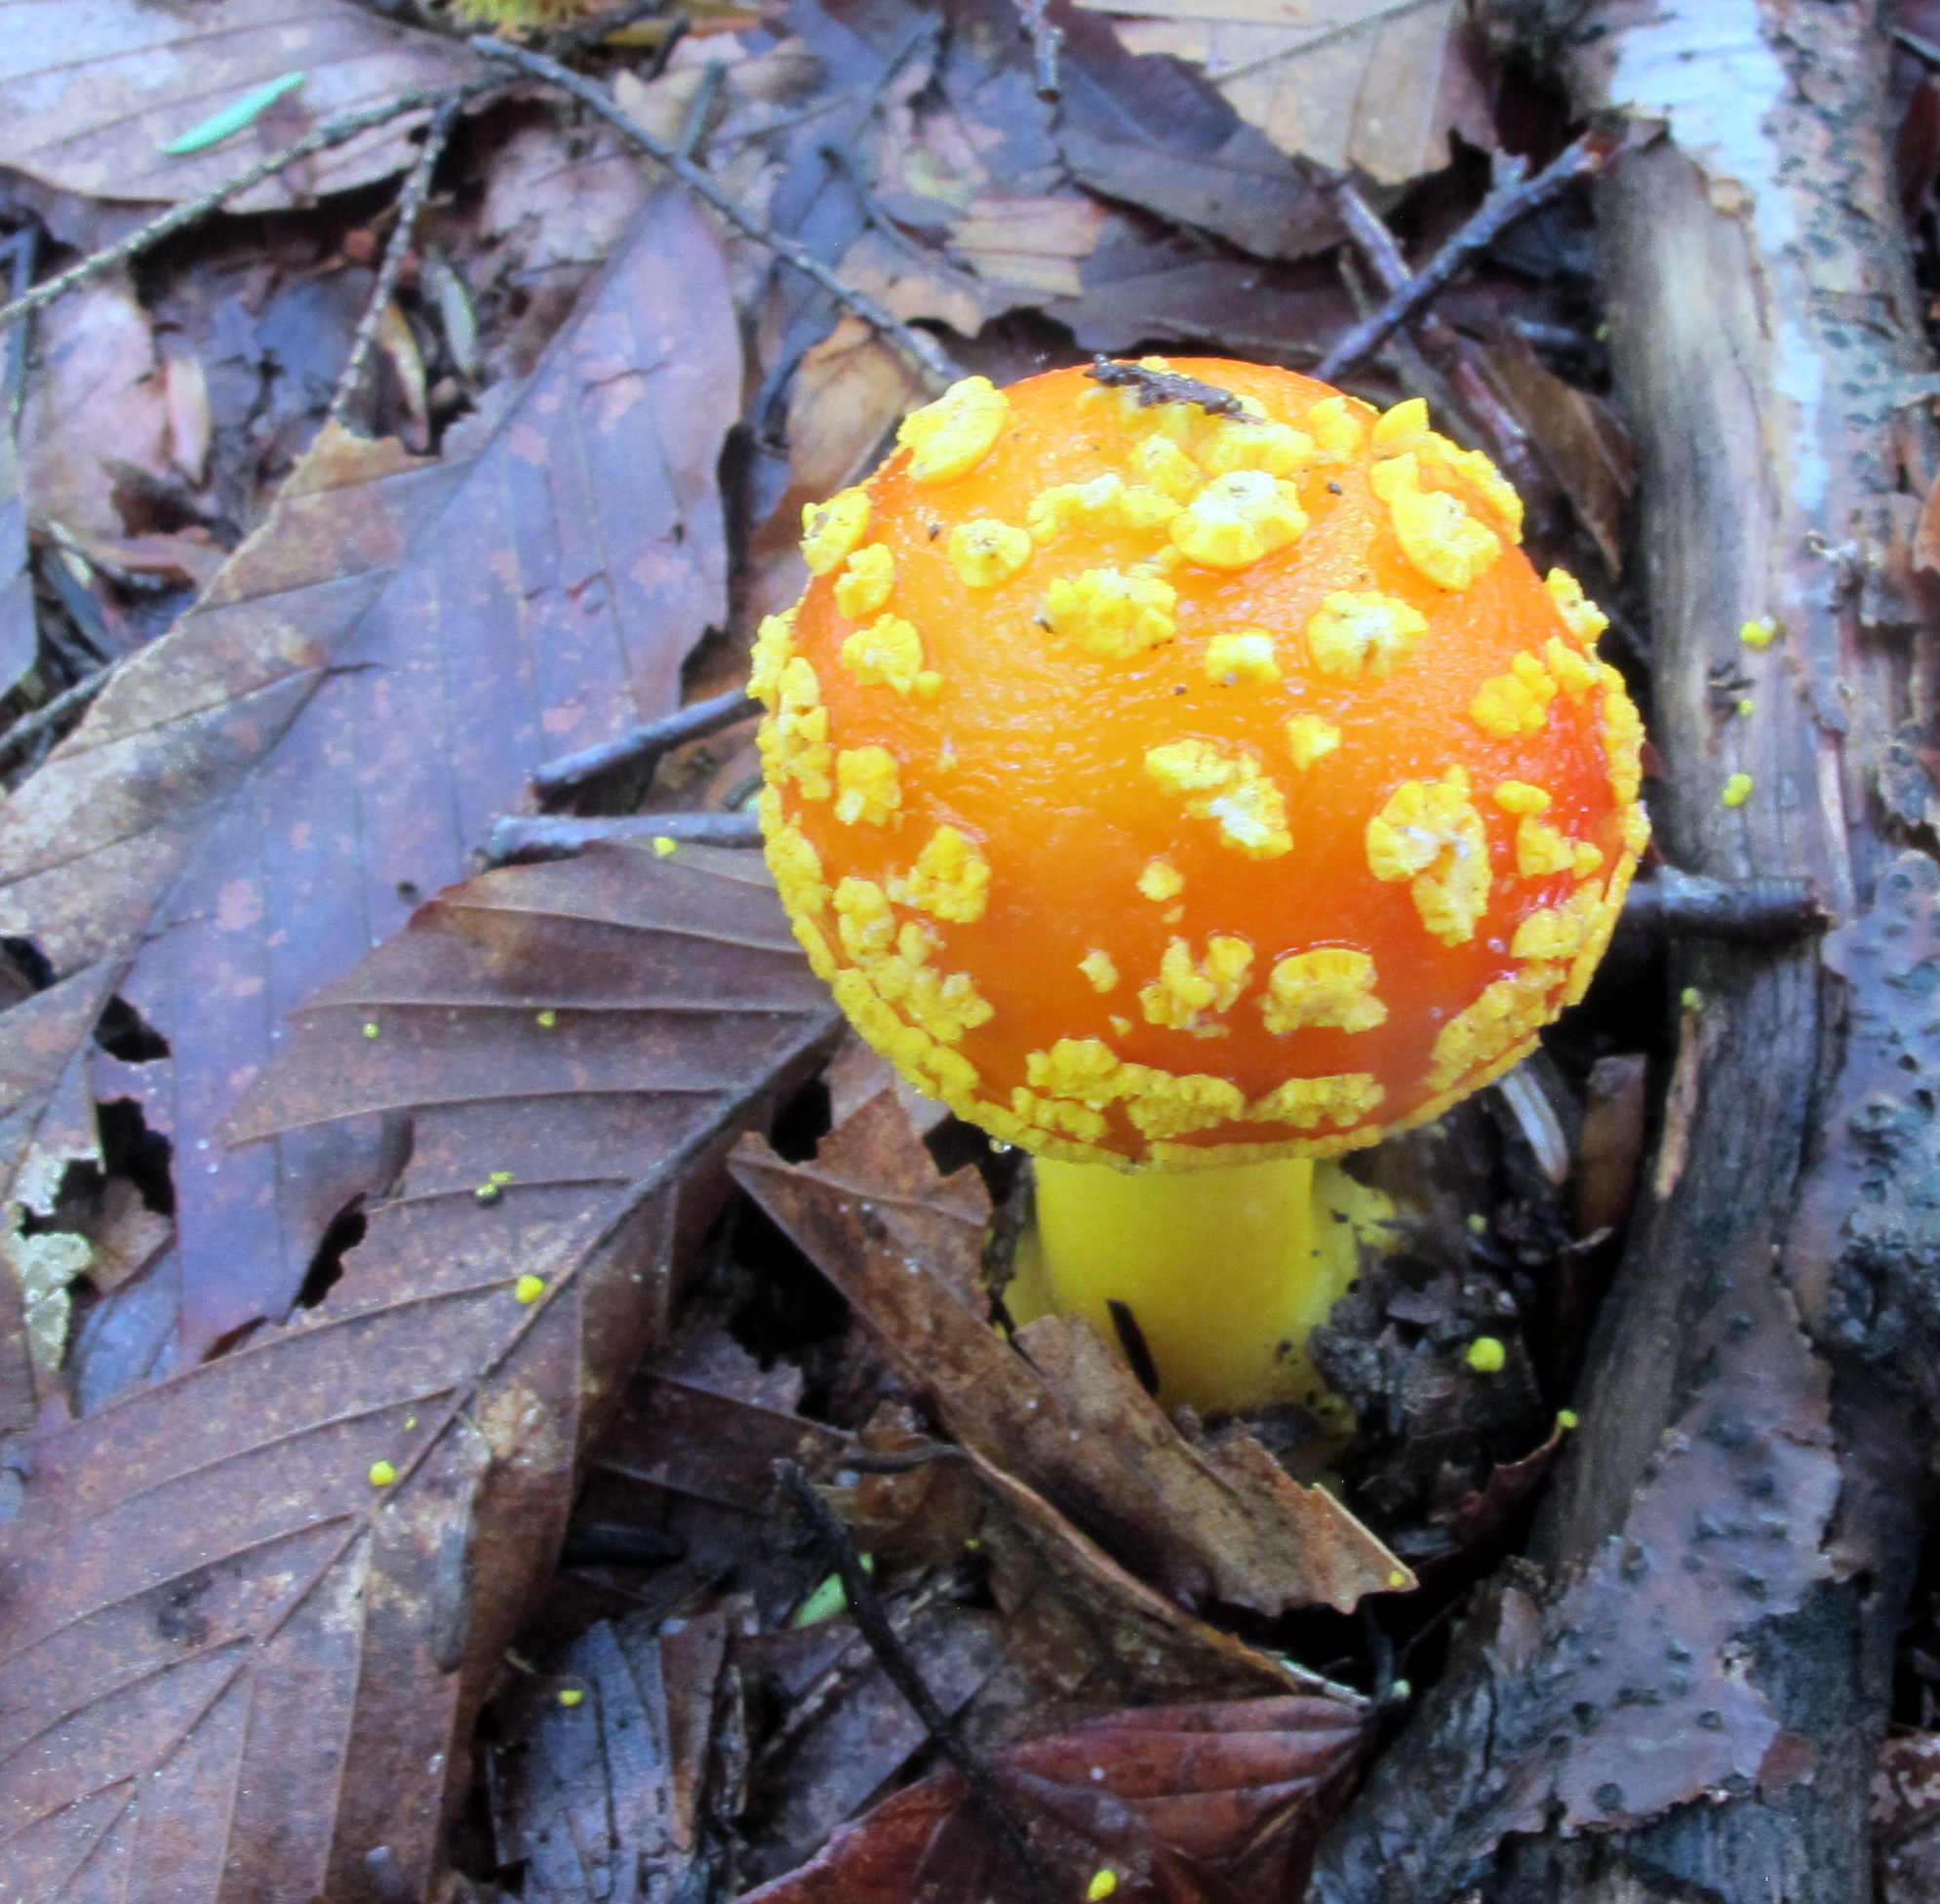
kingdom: Fungi
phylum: Basidiomycota
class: Agaricomycetes
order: Agaricales
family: Amanitaceae
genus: Amanita
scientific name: Amanita flavoconia
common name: Yellow patches
